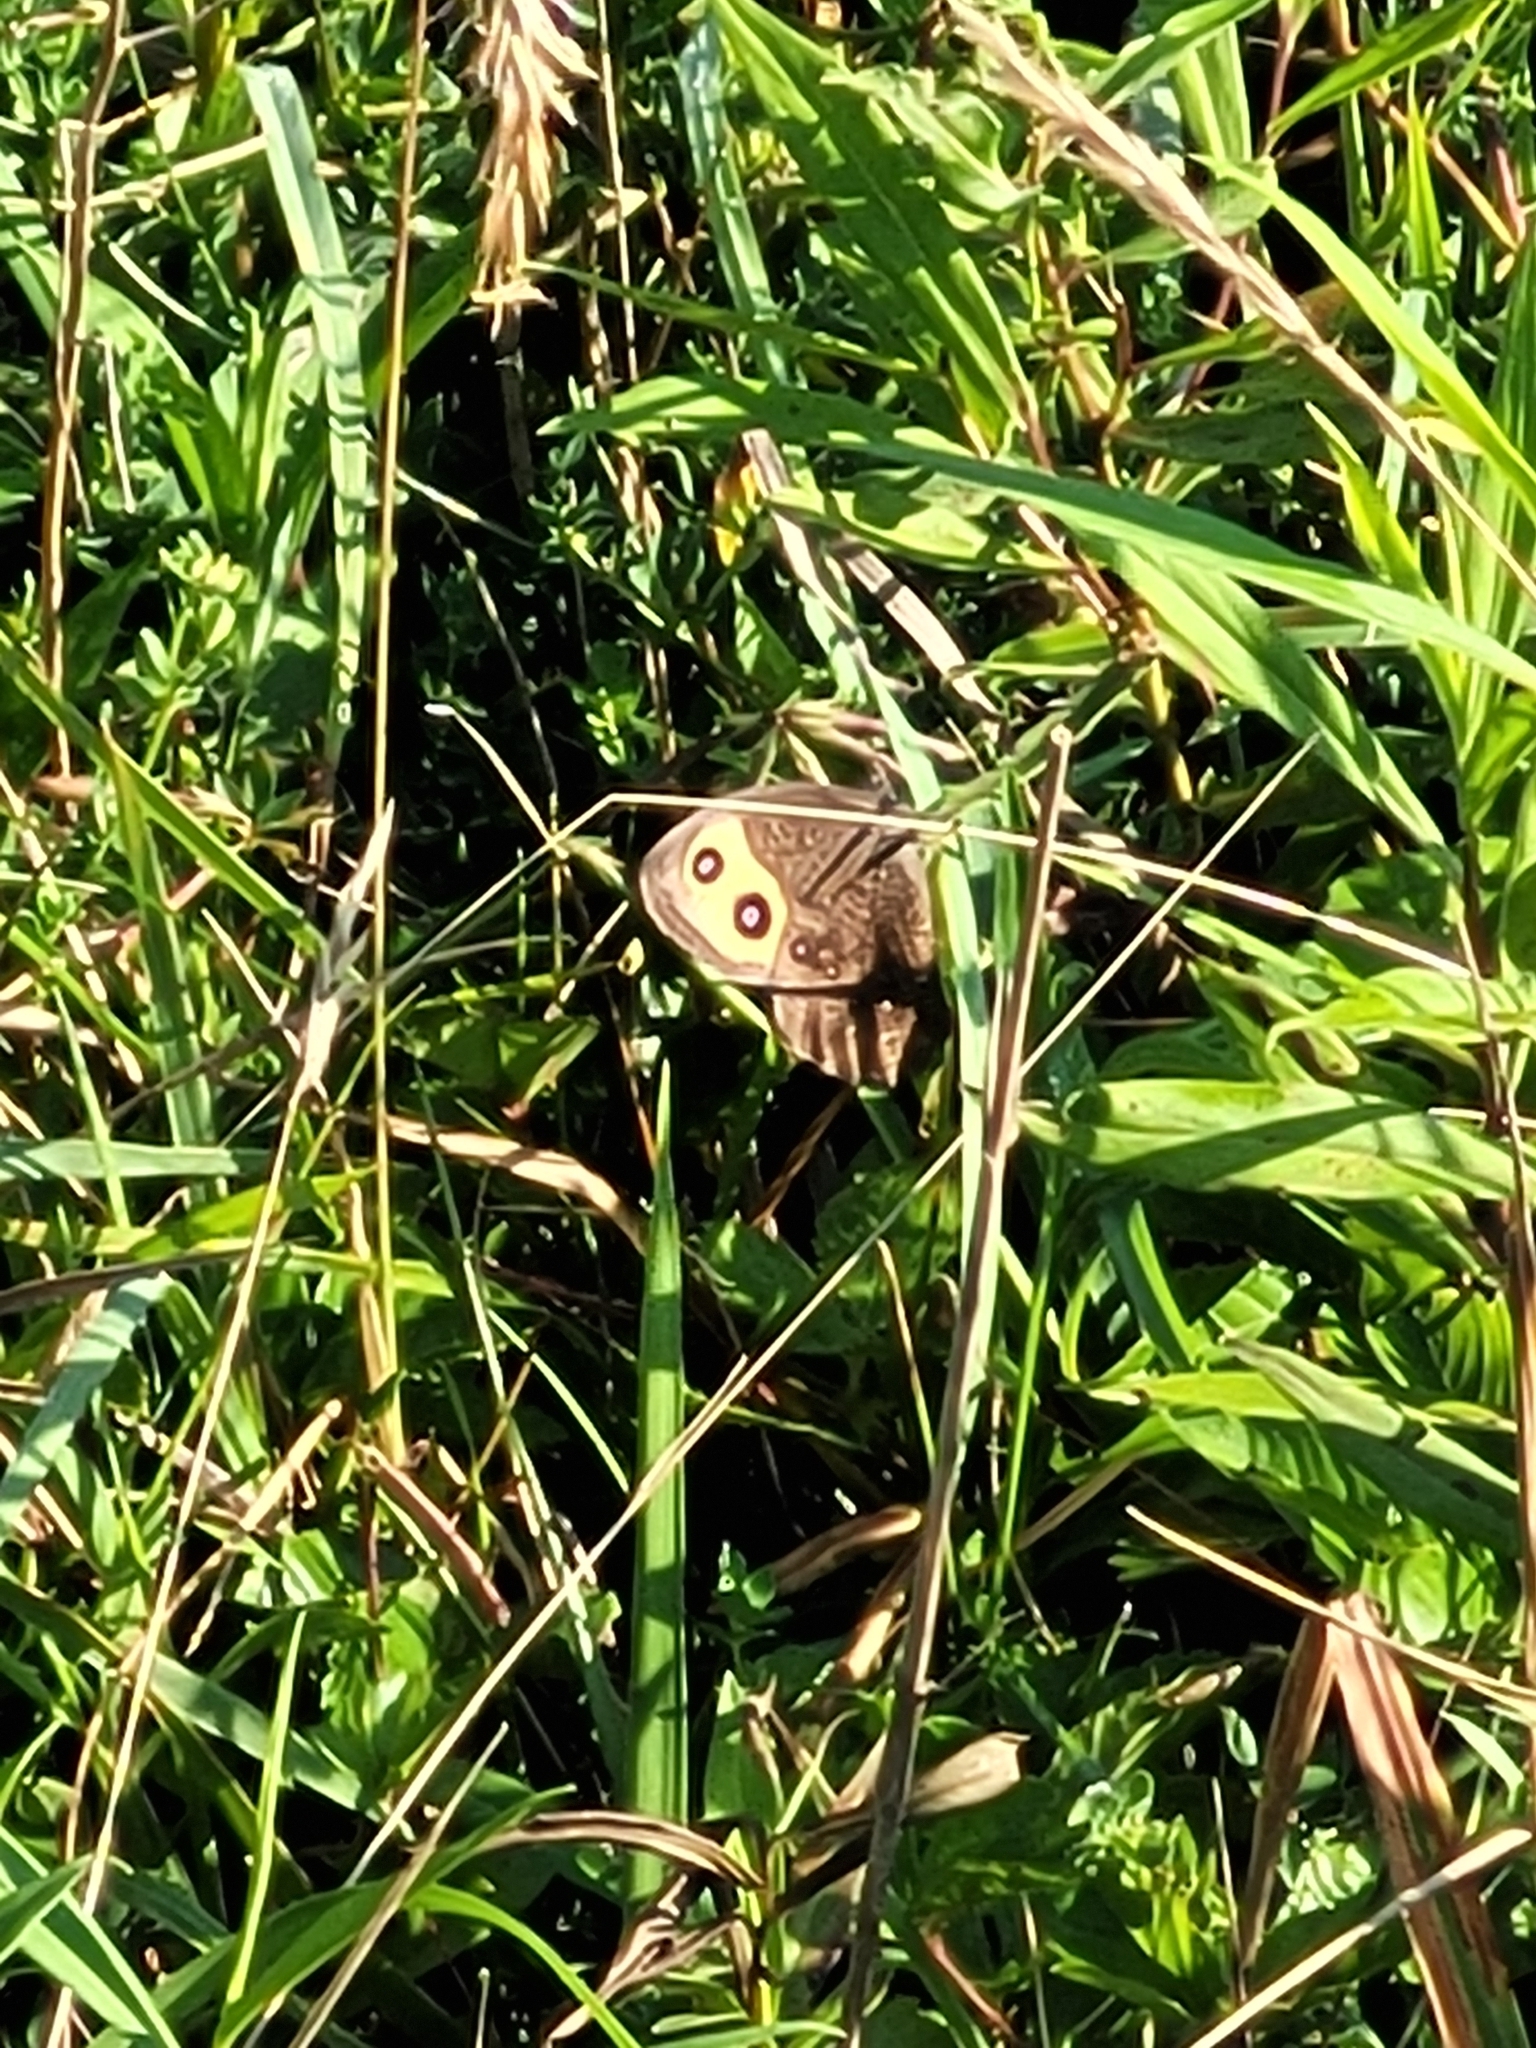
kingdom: Animalia
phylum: Arthropoda
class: Insecta
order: Lepidoptera
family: Nymphalidae
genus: Cercyonis
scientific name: Cercyonis pegala
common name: Common wood-nymph
